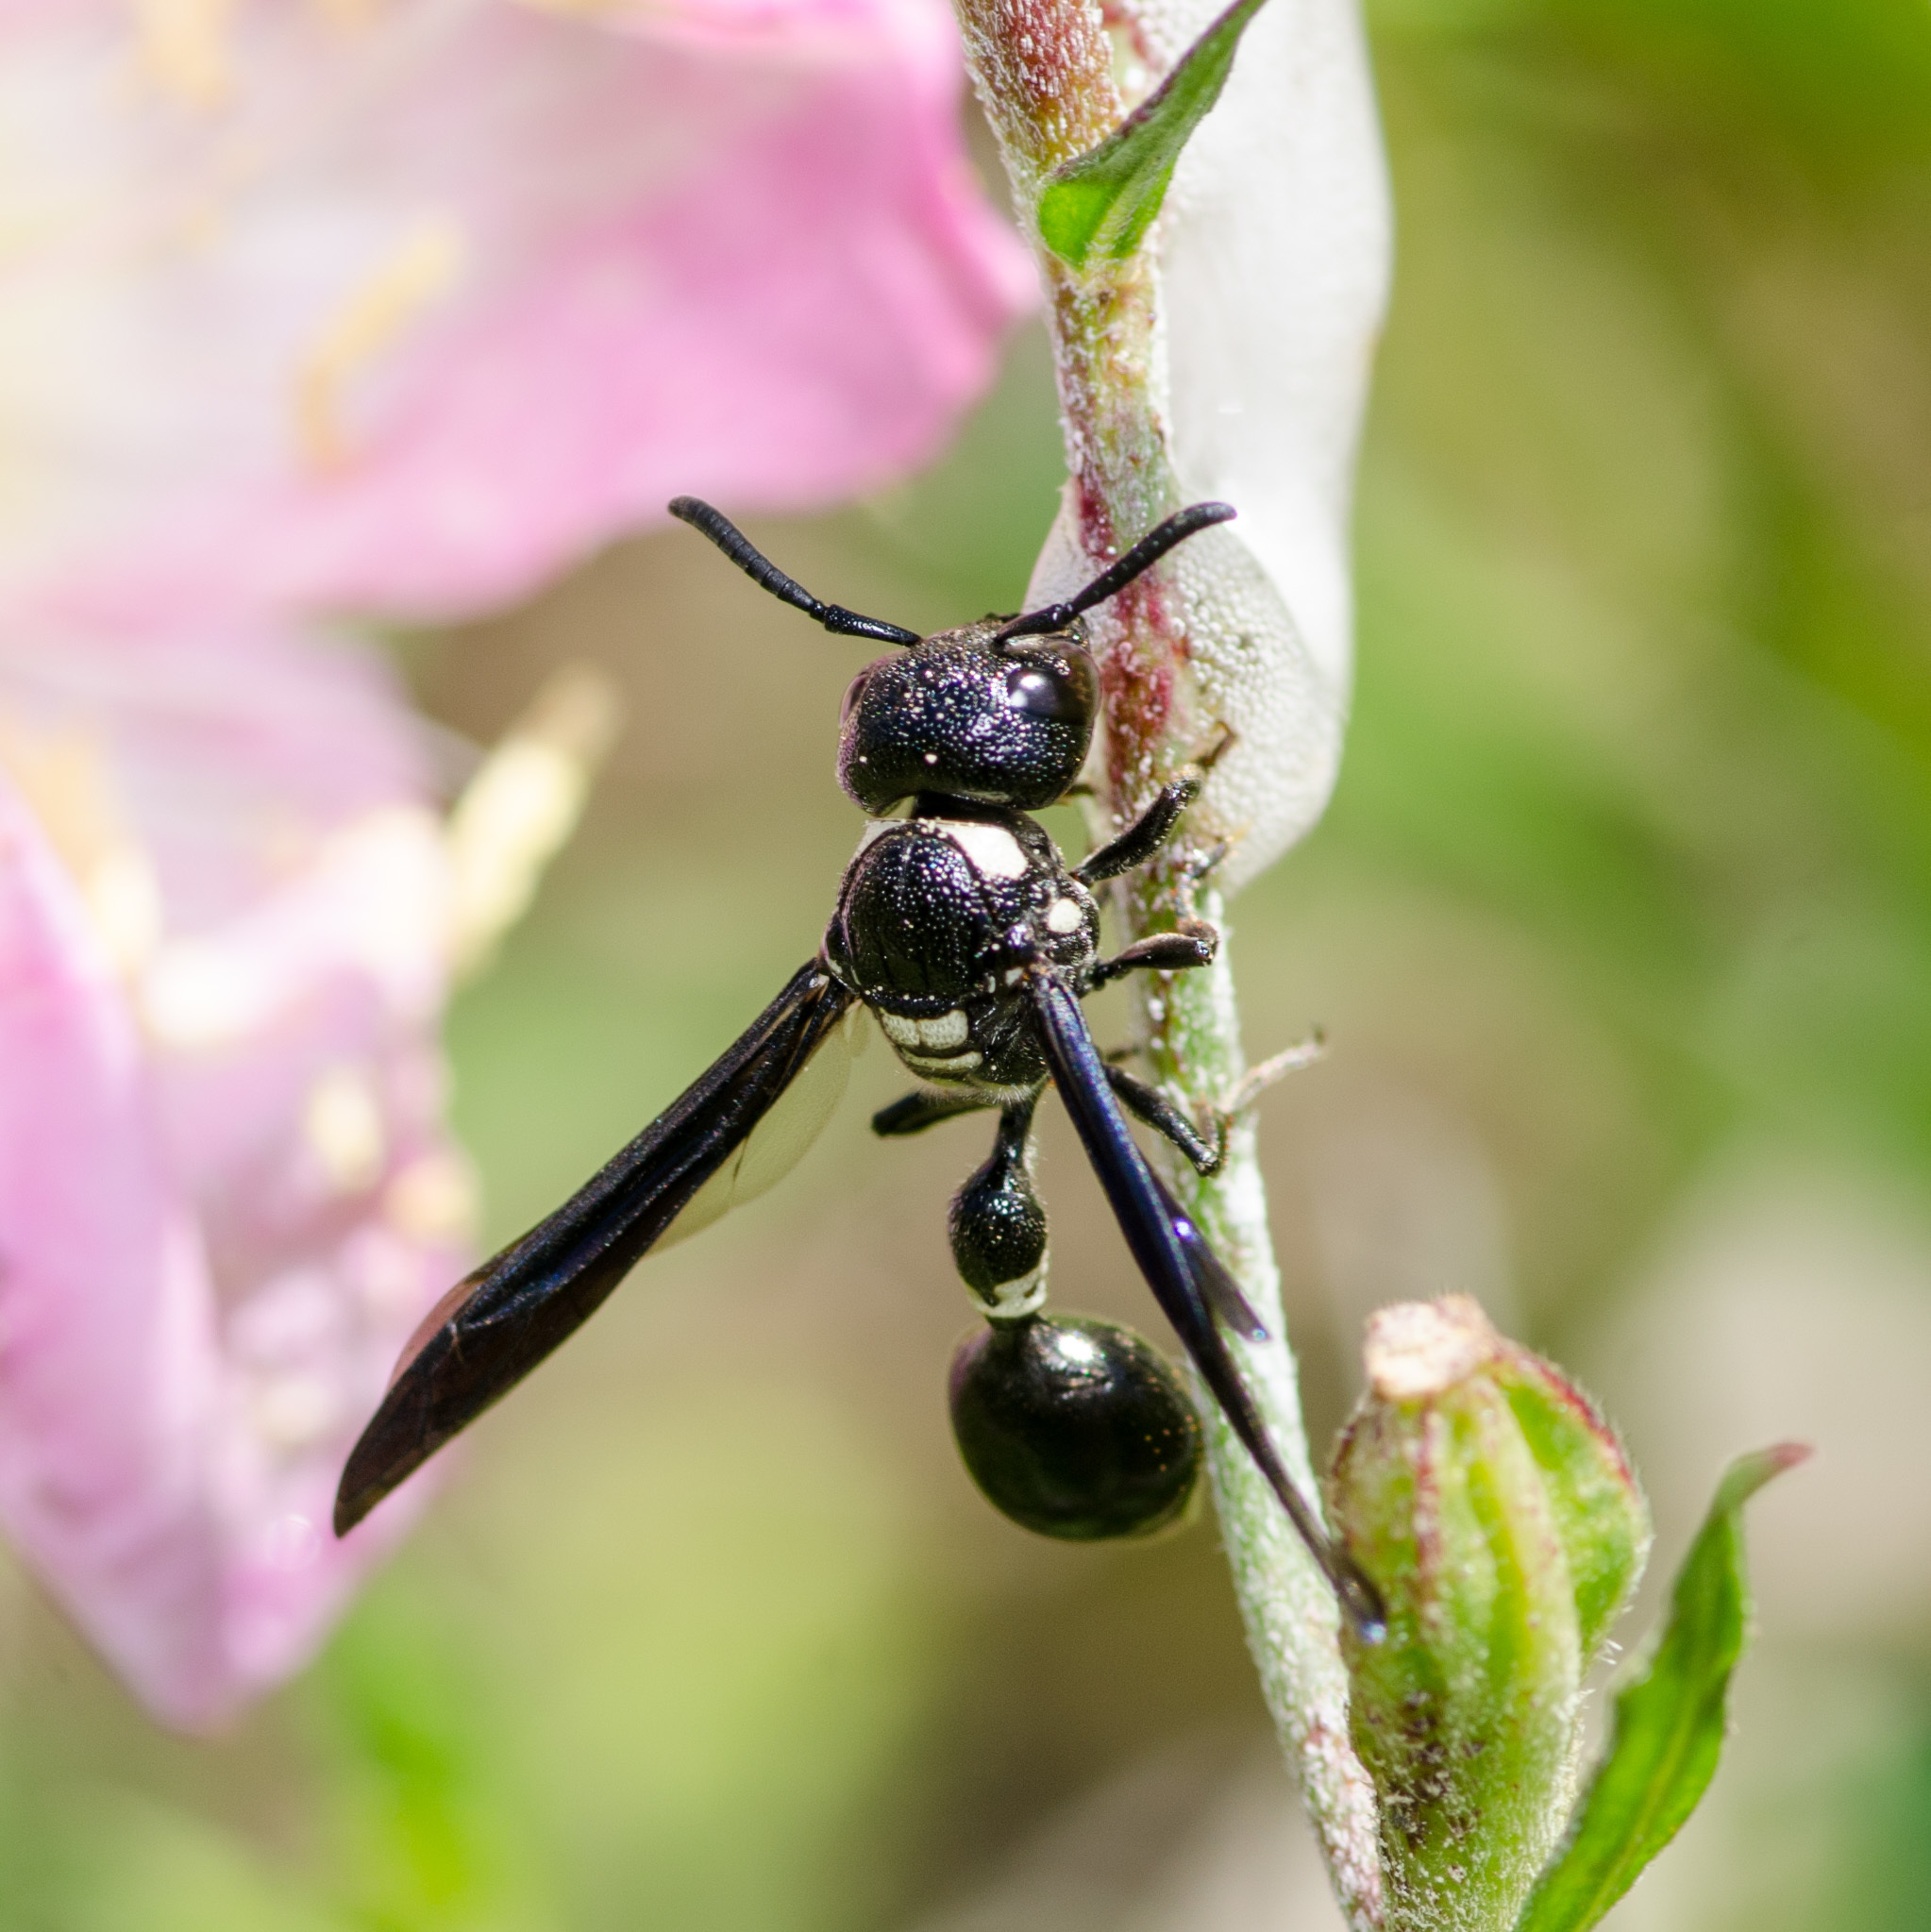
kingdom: Animalia
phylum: Arthropoda
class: Insecta
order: Hymenoptera
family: Eumenidae
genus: Zethus
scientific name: Zethus spinipes
